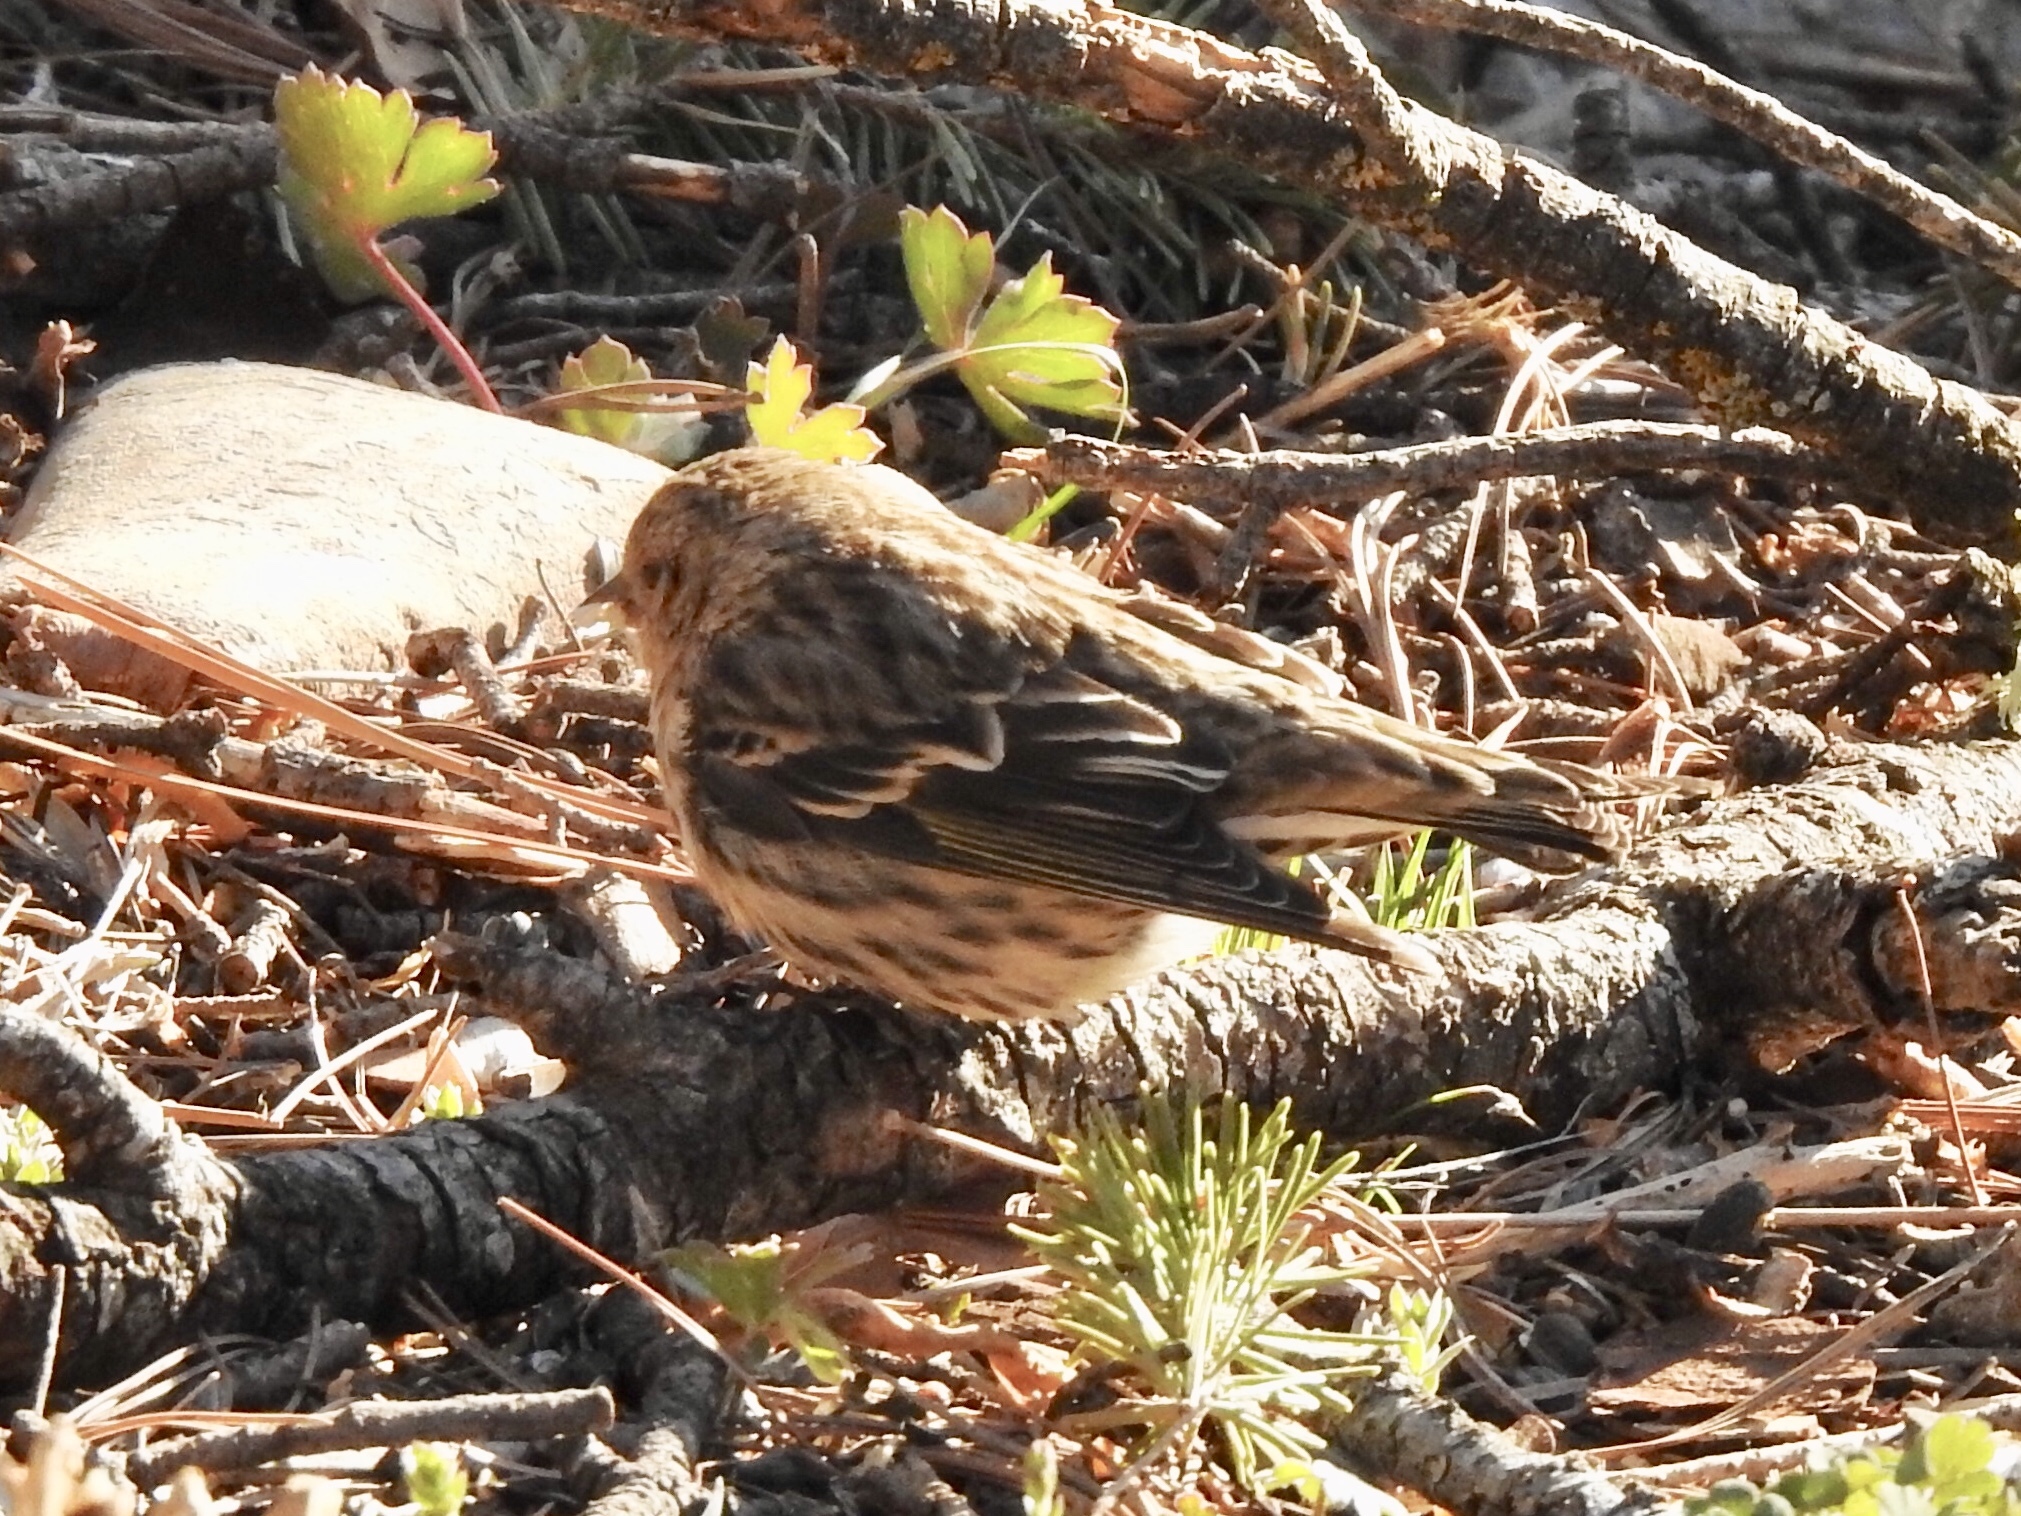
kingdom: Animalia
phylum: Chordata
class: Aves
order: Passeriformes
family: Fringillidae
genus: Spinus
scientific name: Spinus pinus
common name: Pine siskin
